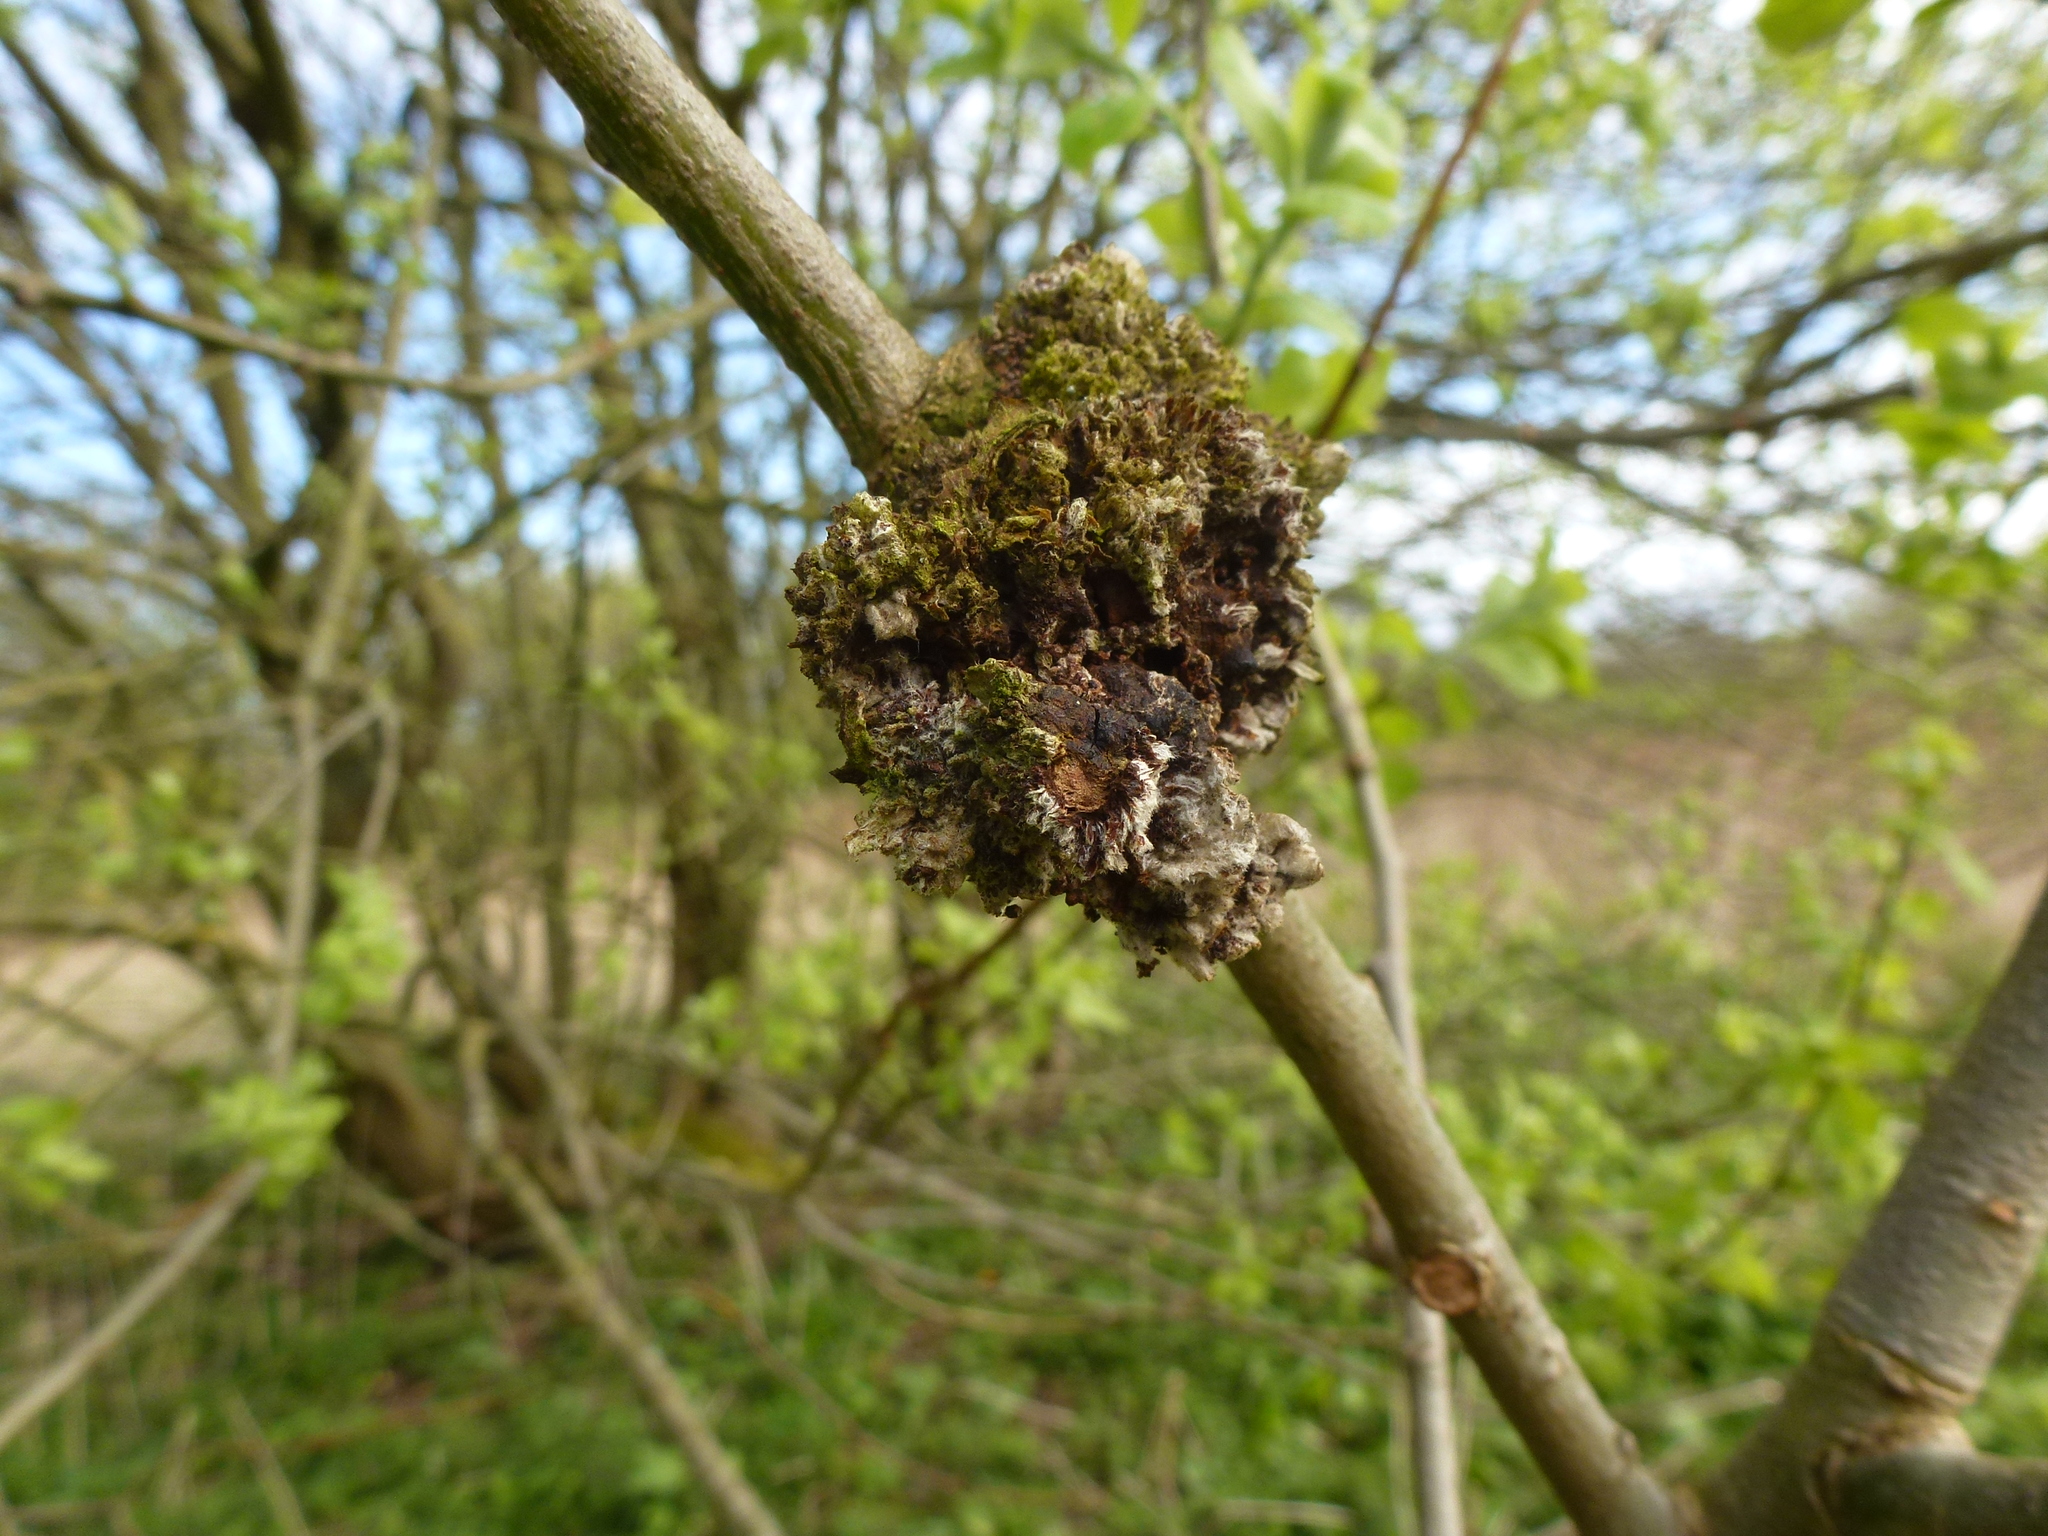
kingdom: Animalia
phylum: Arthropoda
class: Arachnida
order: Trombidiformes
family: Eriophyidae
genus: Stenacis
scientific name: Stenacis triradiatus
